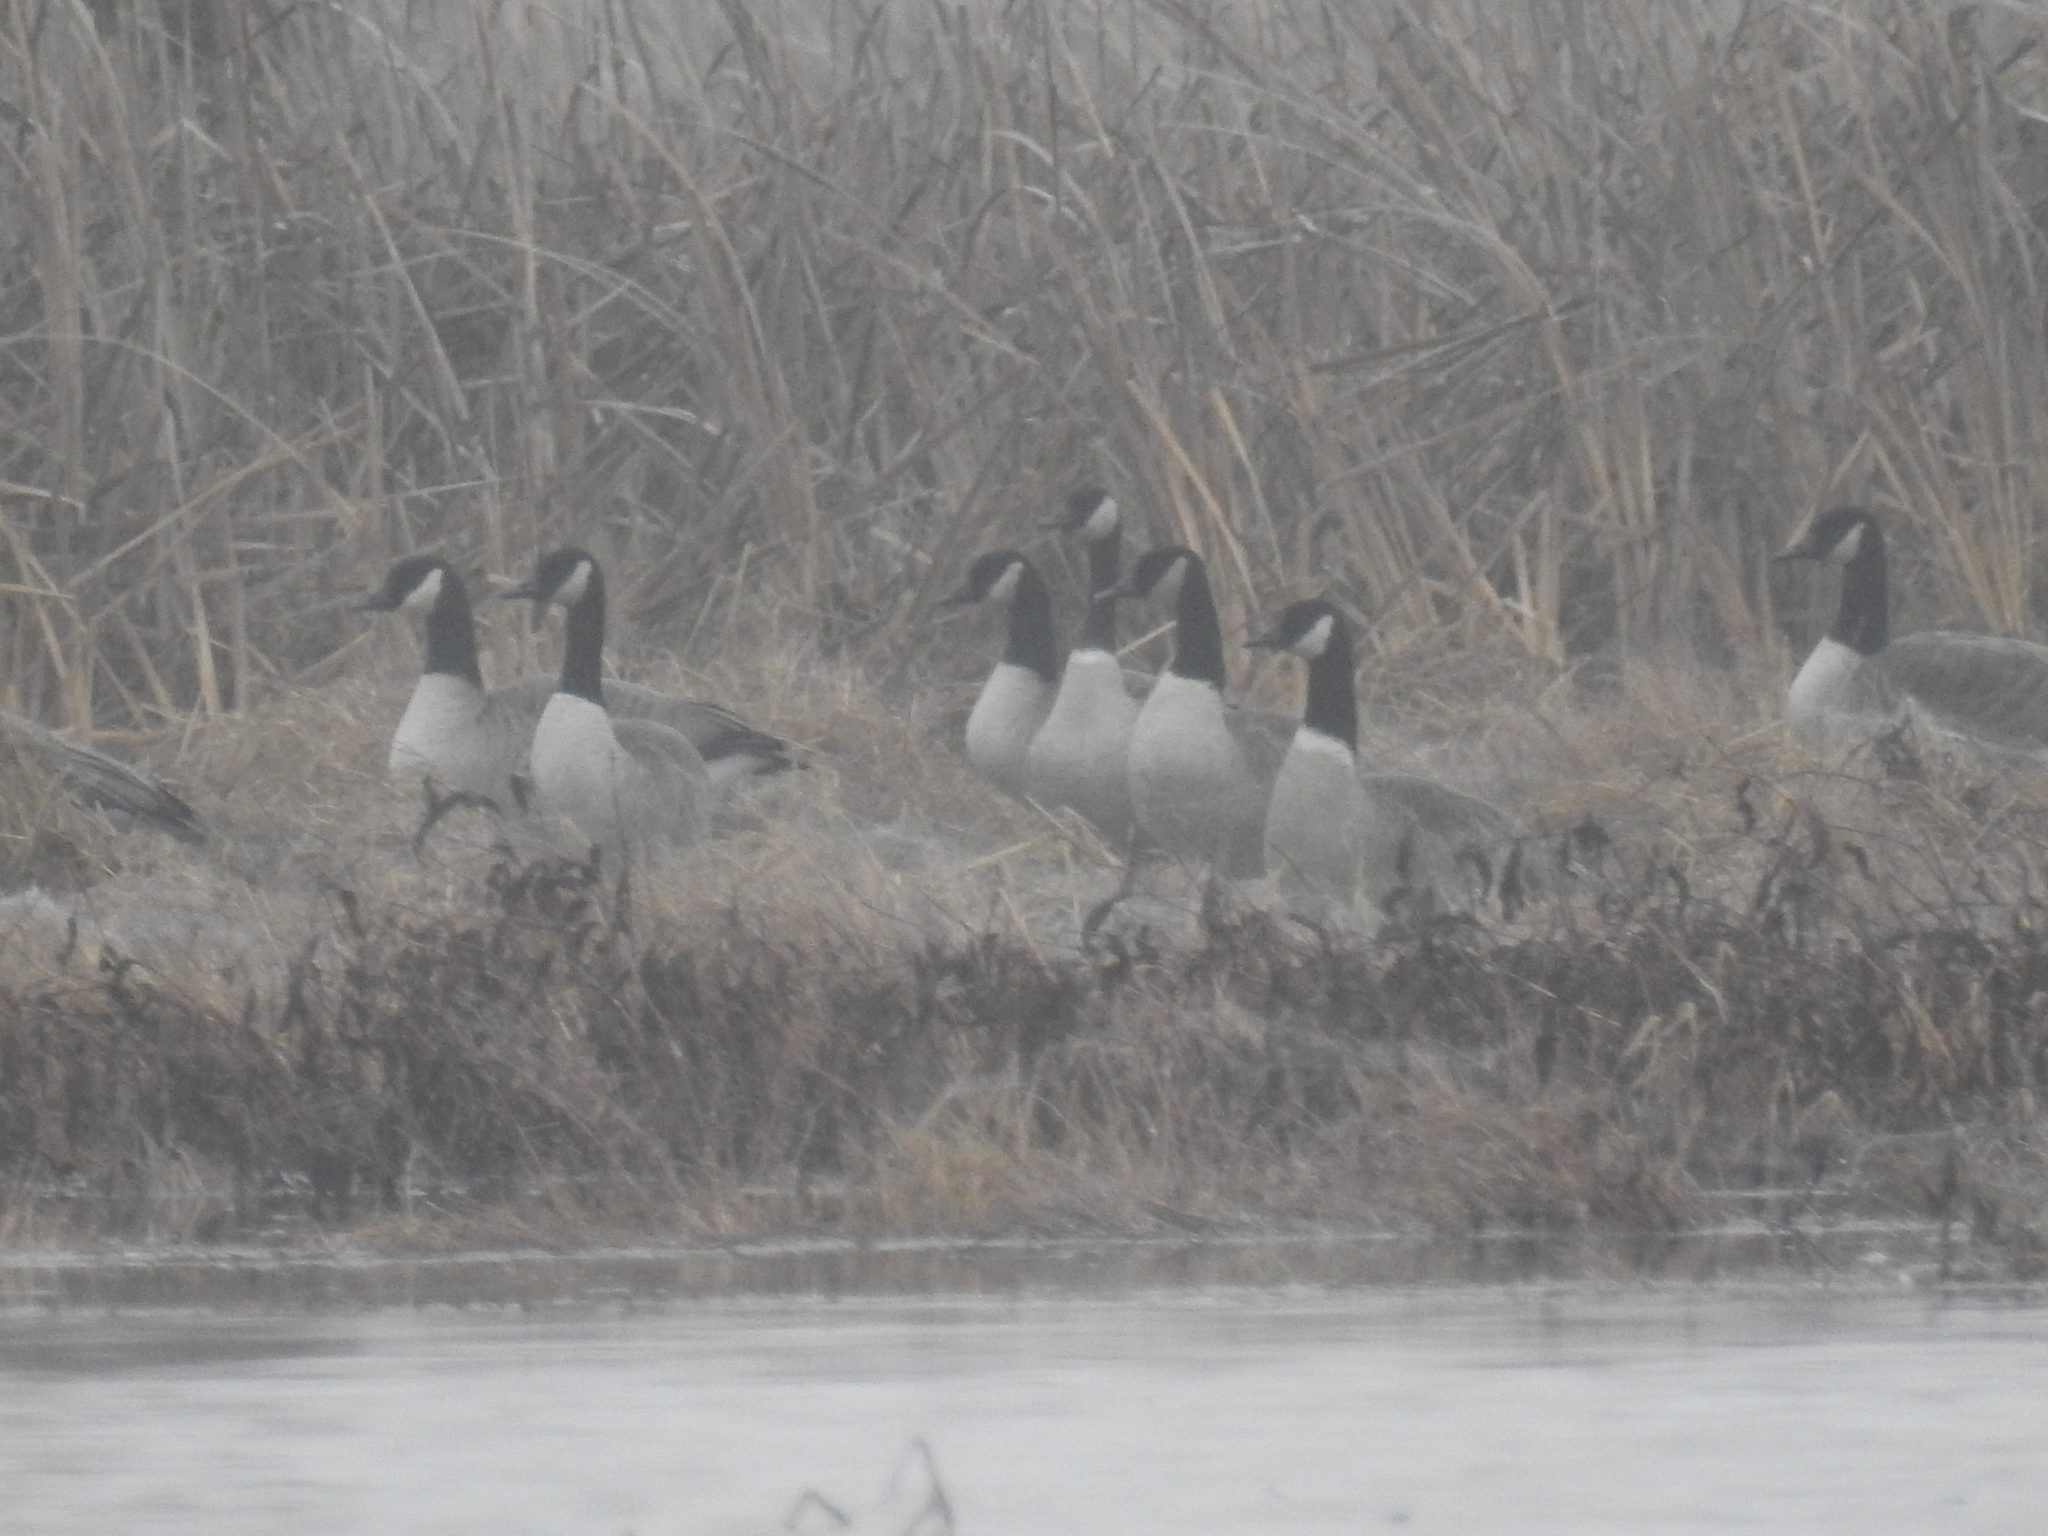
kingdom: Animalia
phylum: Chordata
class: Aves
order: Anseriformes
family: Anatidae
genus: Branta
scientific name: Branta canadensis
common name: Canada goose
